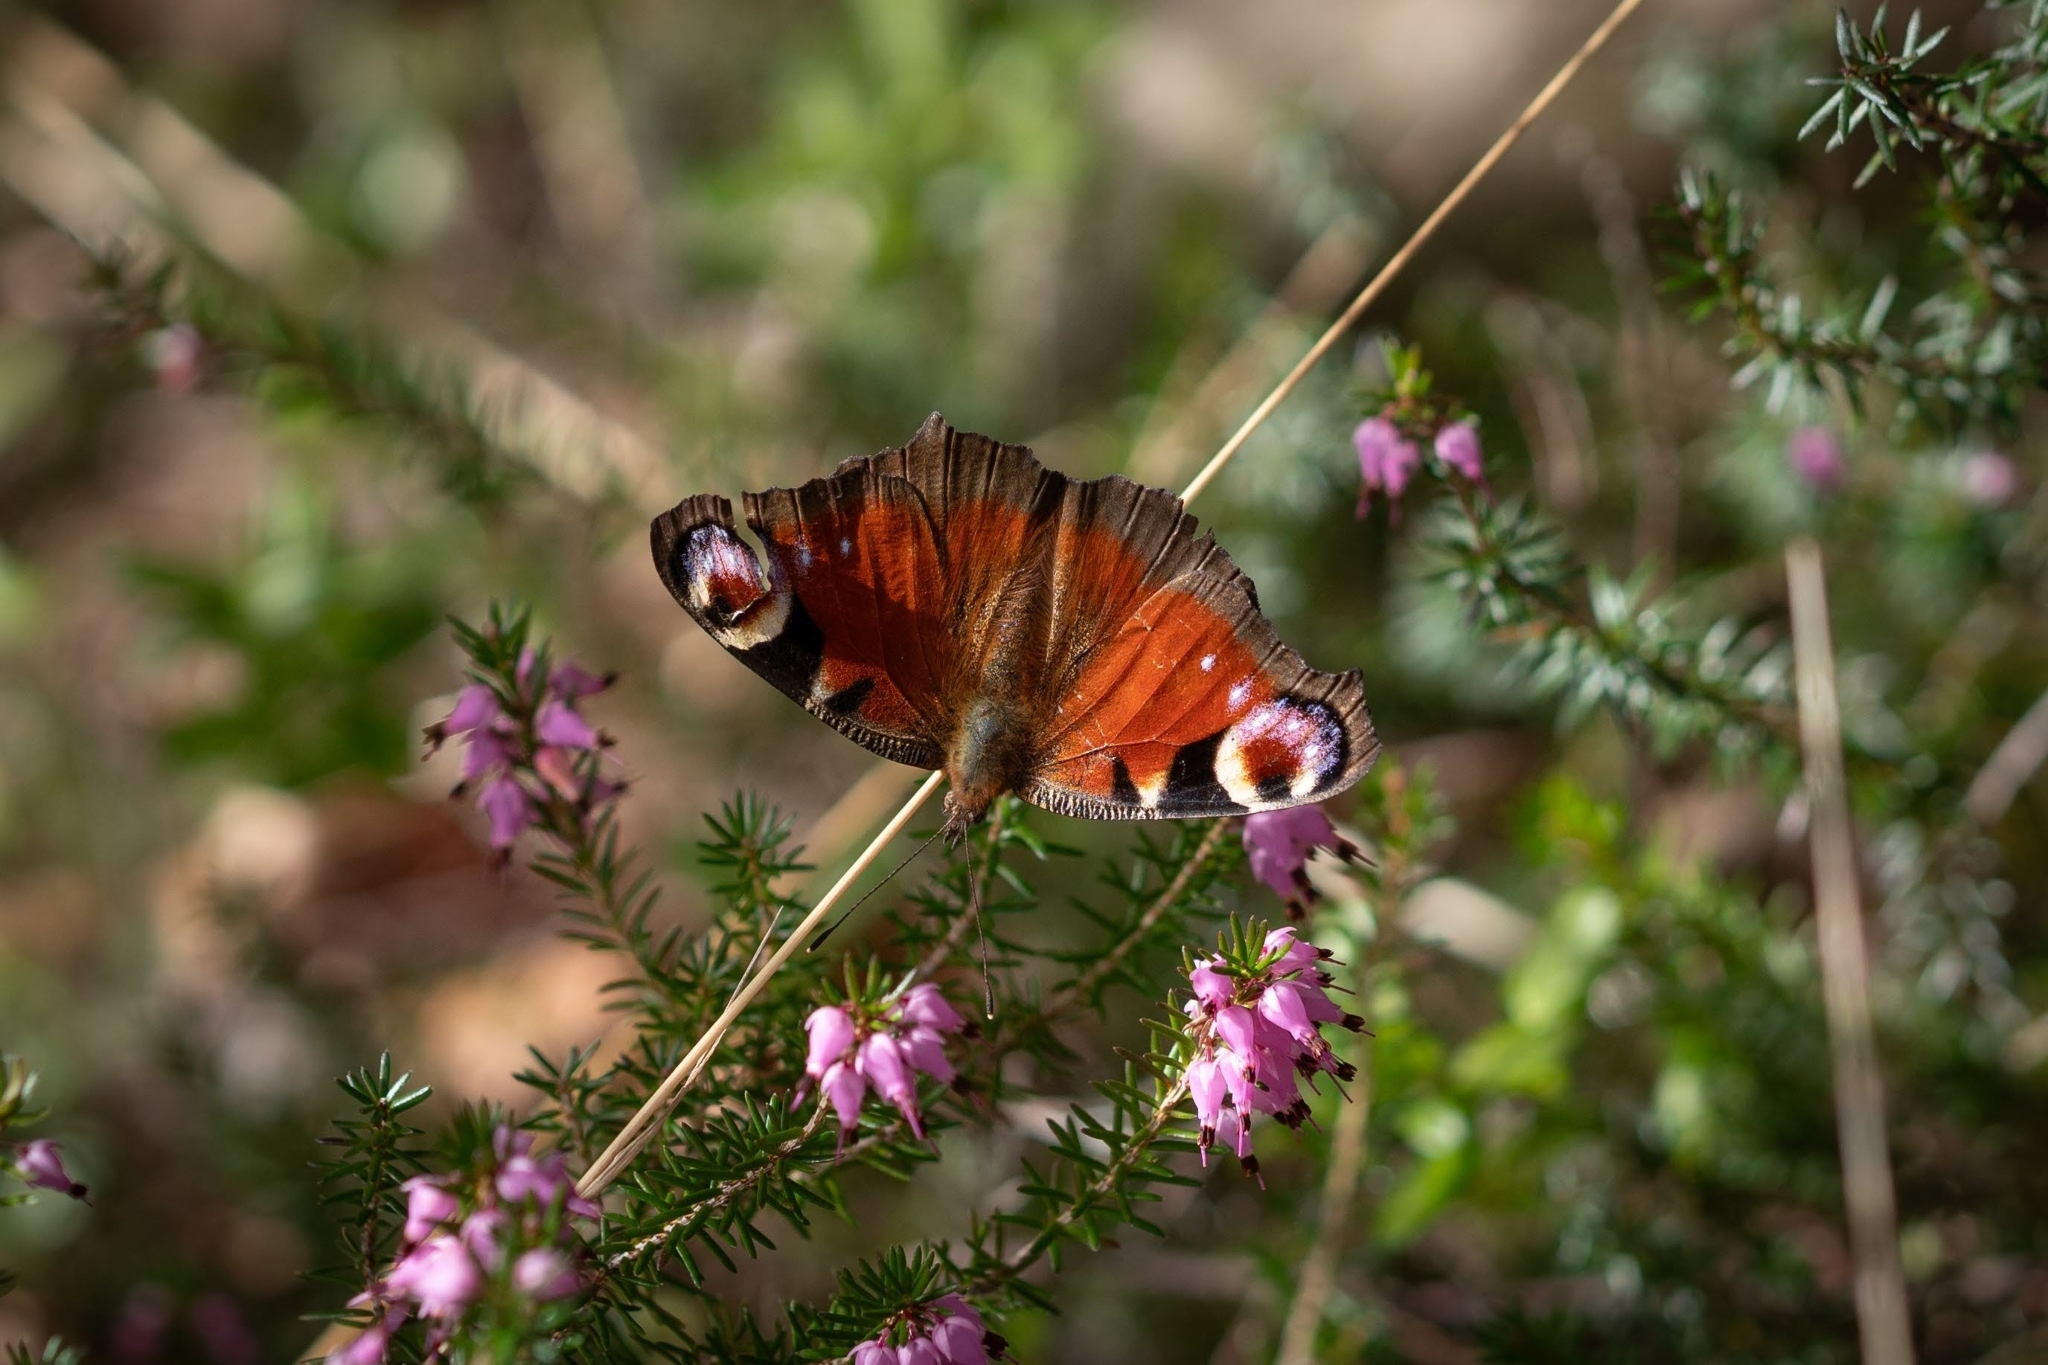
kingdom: Animalia
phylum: Arthropoda
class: Insecta
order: Lepidoptera
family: Nymphalidae
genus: Aglais
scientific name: Aglais io
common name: Peacock
